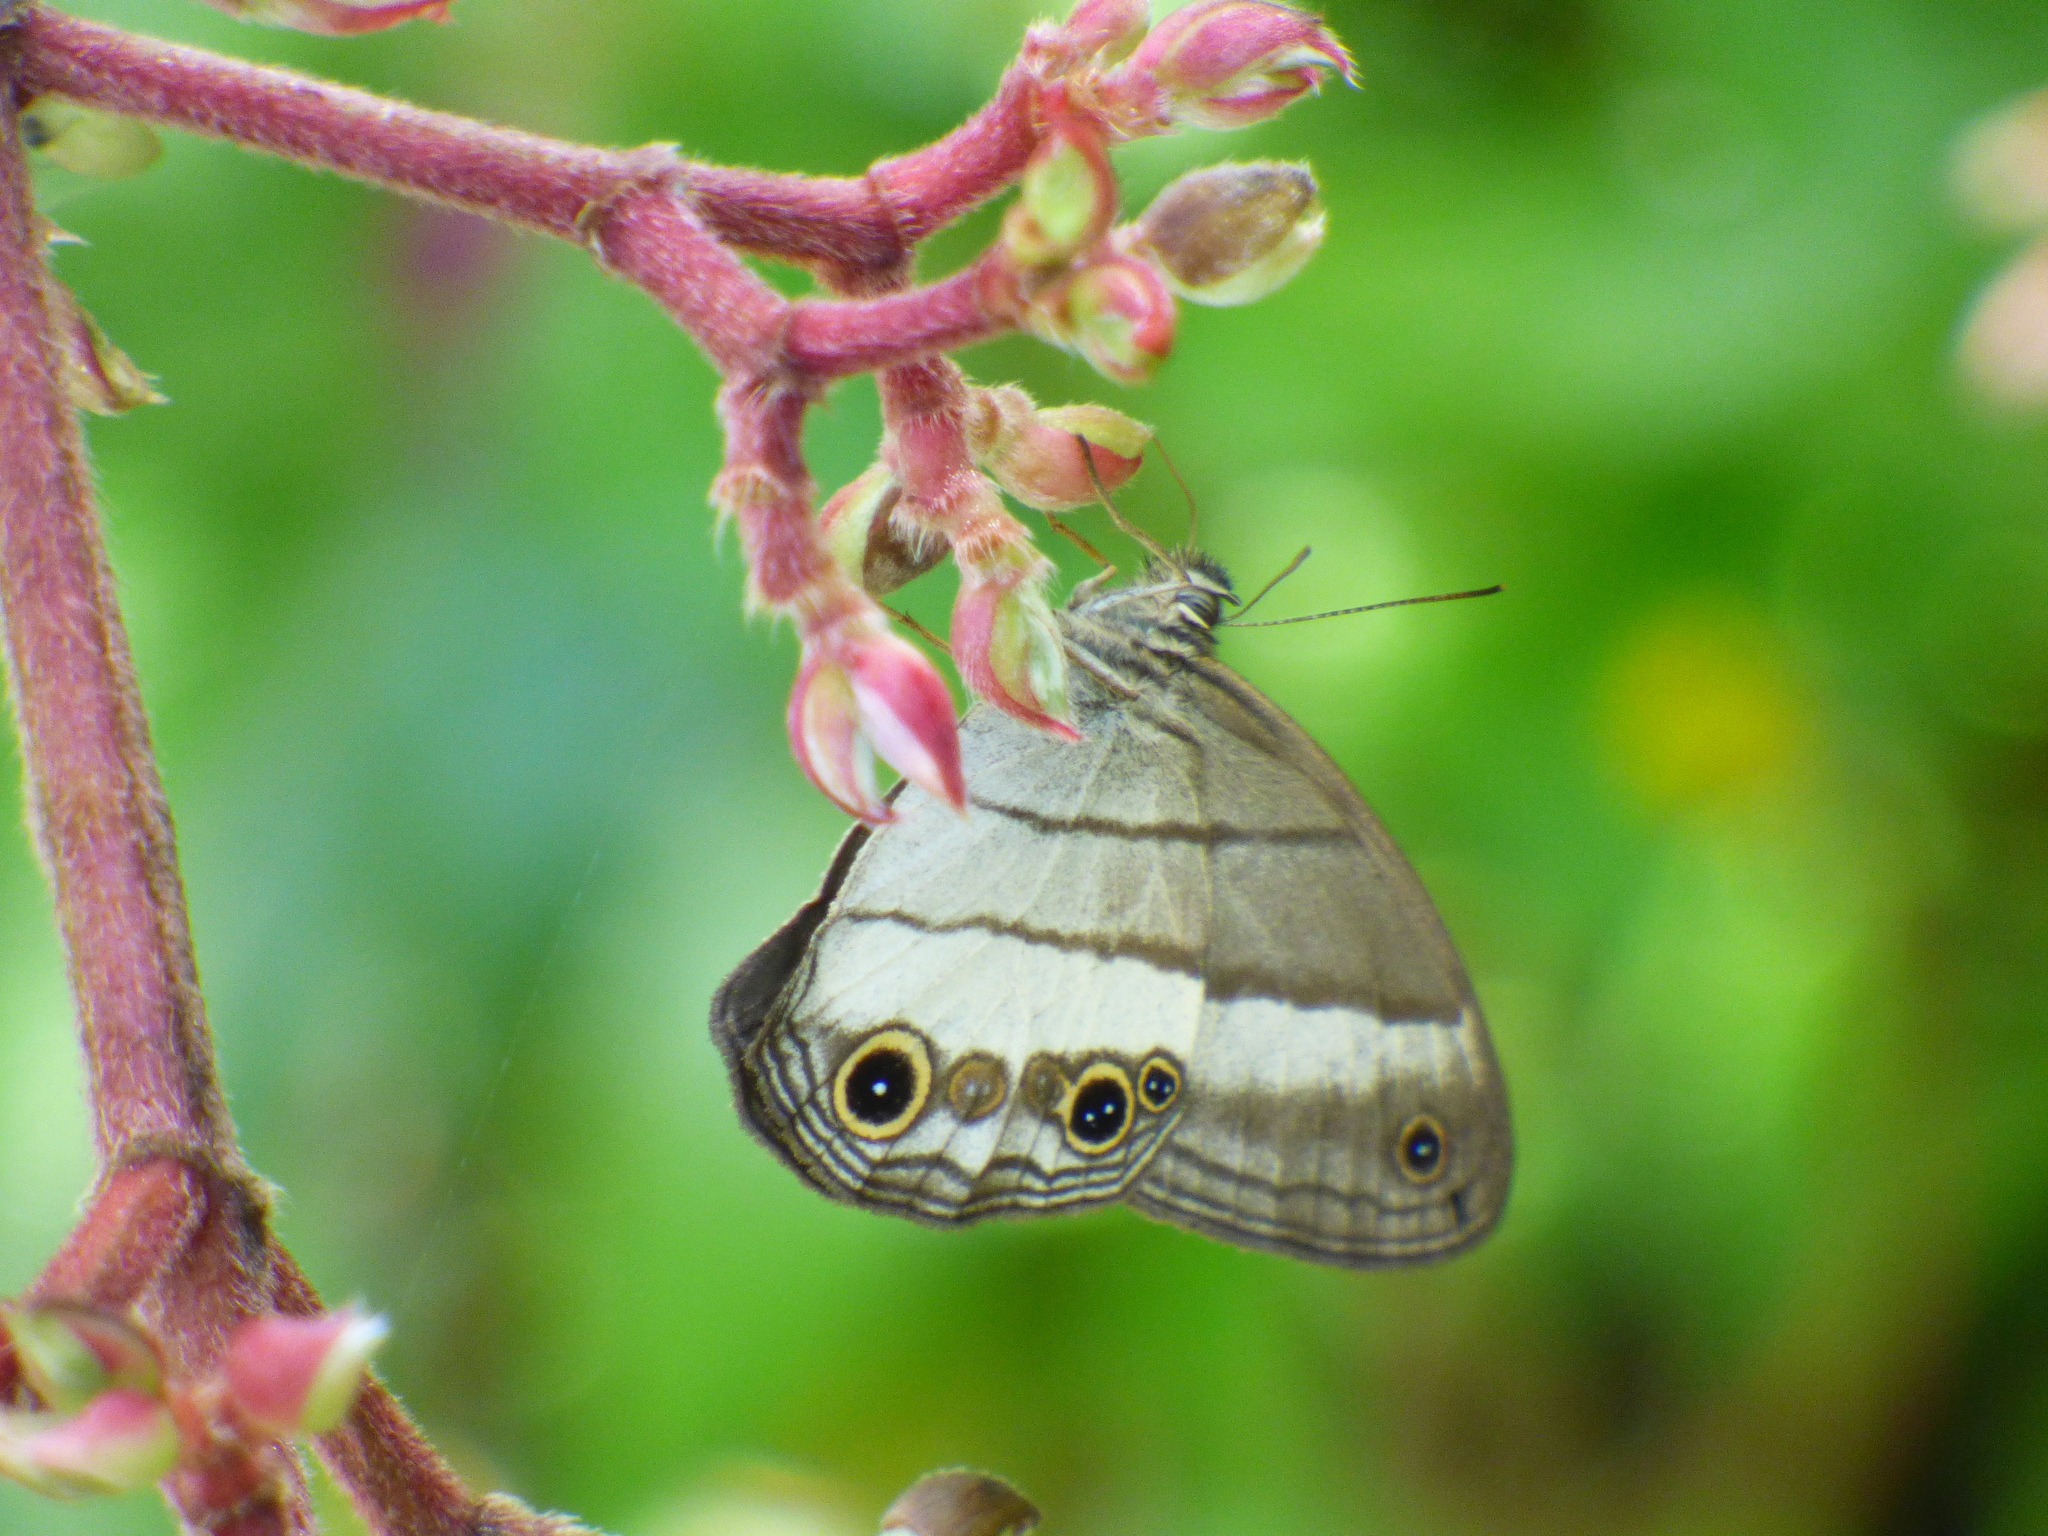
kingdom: Animalia
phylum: Arthropoda
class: Insecta
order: Lepidoptera
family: Nymphalidae
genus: Euptychoides
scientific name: Euptychoides saturnus
